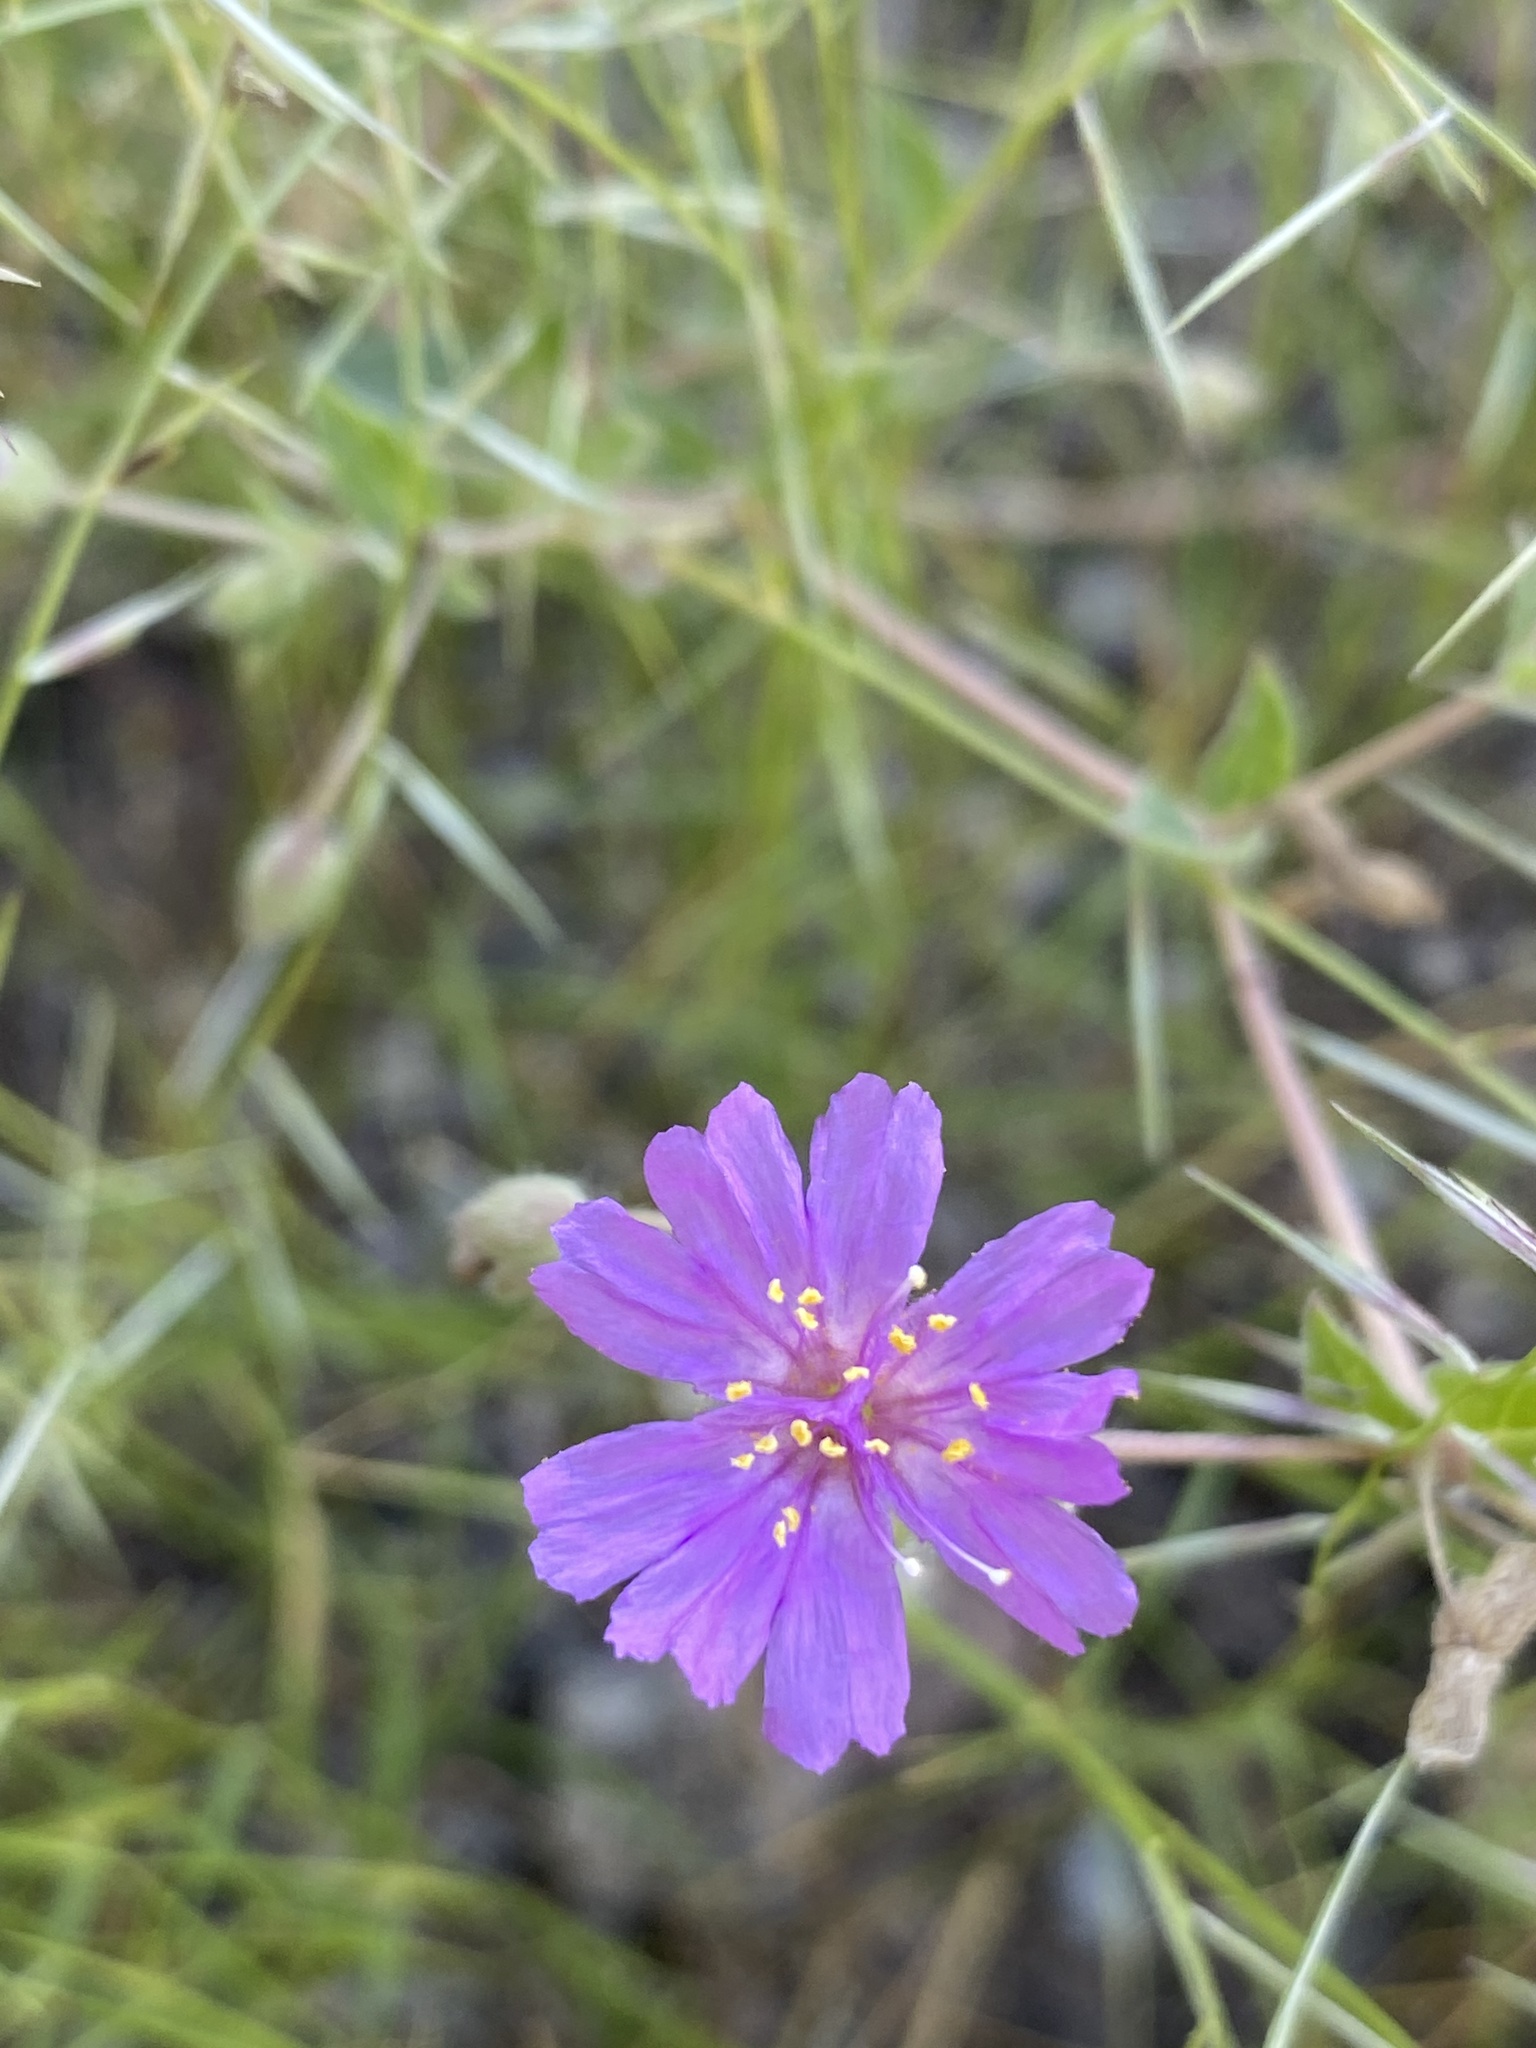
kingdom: Plantae
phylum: Tracheophyta
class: Magnoliopsida
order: Caryophyllales
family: Nyctaginaceae
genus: Allionia
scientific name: Allionia incarnata
